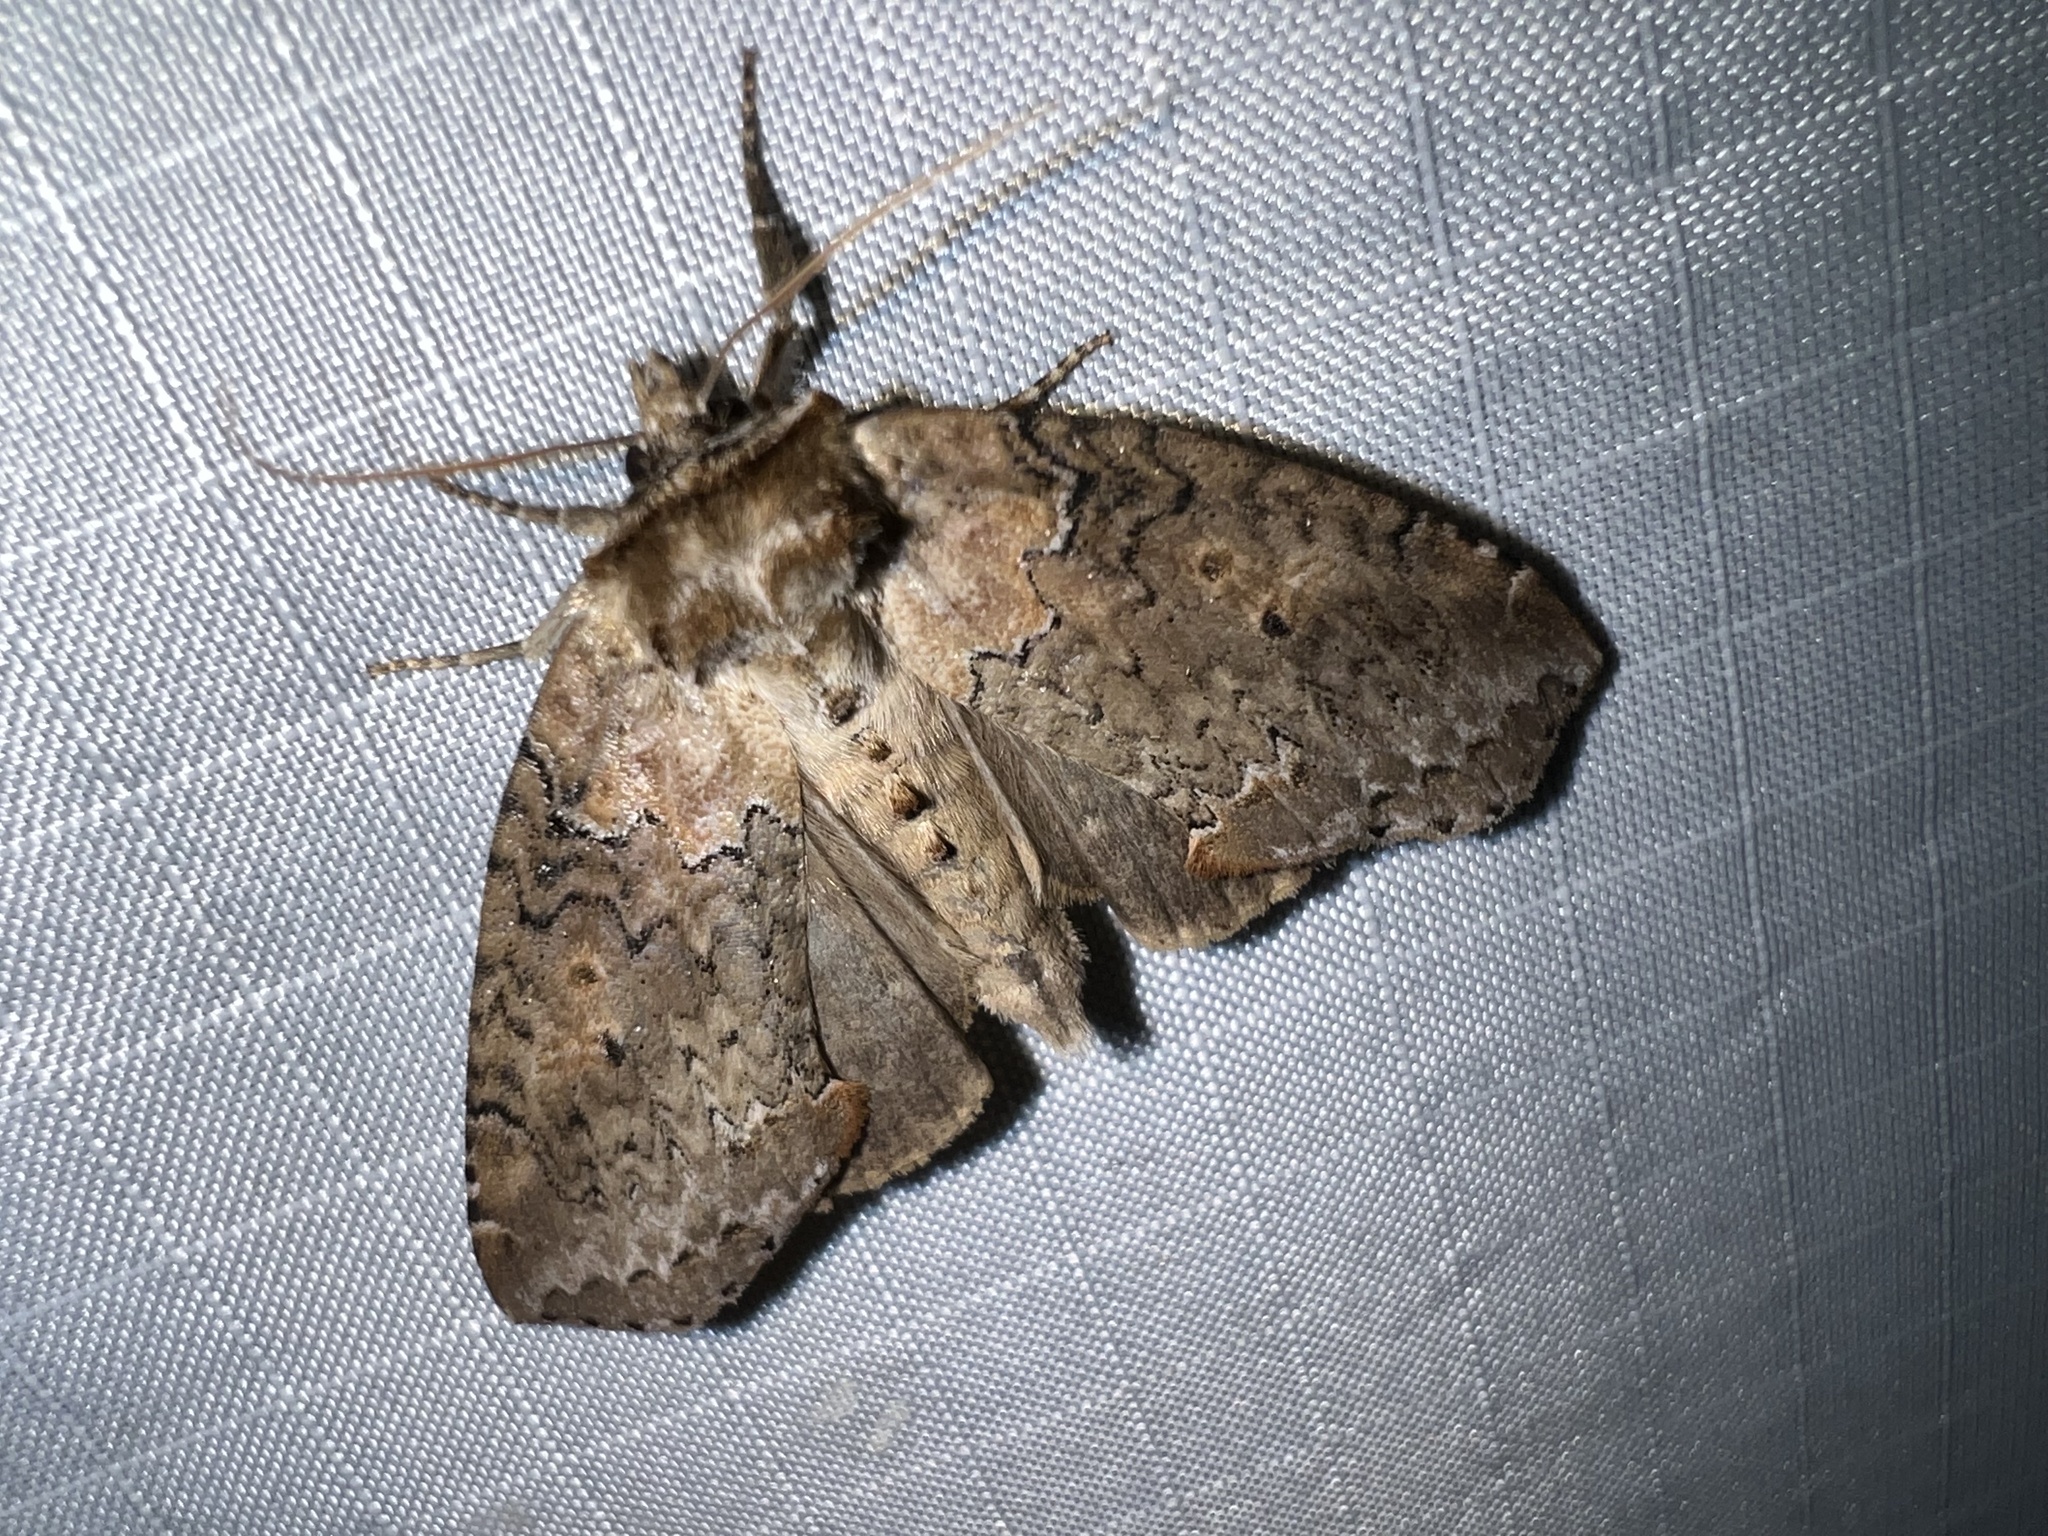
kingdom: Animalia
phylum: Arthropoda
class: Insecta
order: Lepidoptera
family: Drepanidae
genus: Pseudothyatira
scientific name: Pseudothyatira cymatophoroides
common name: Tufted thyatirid moth
